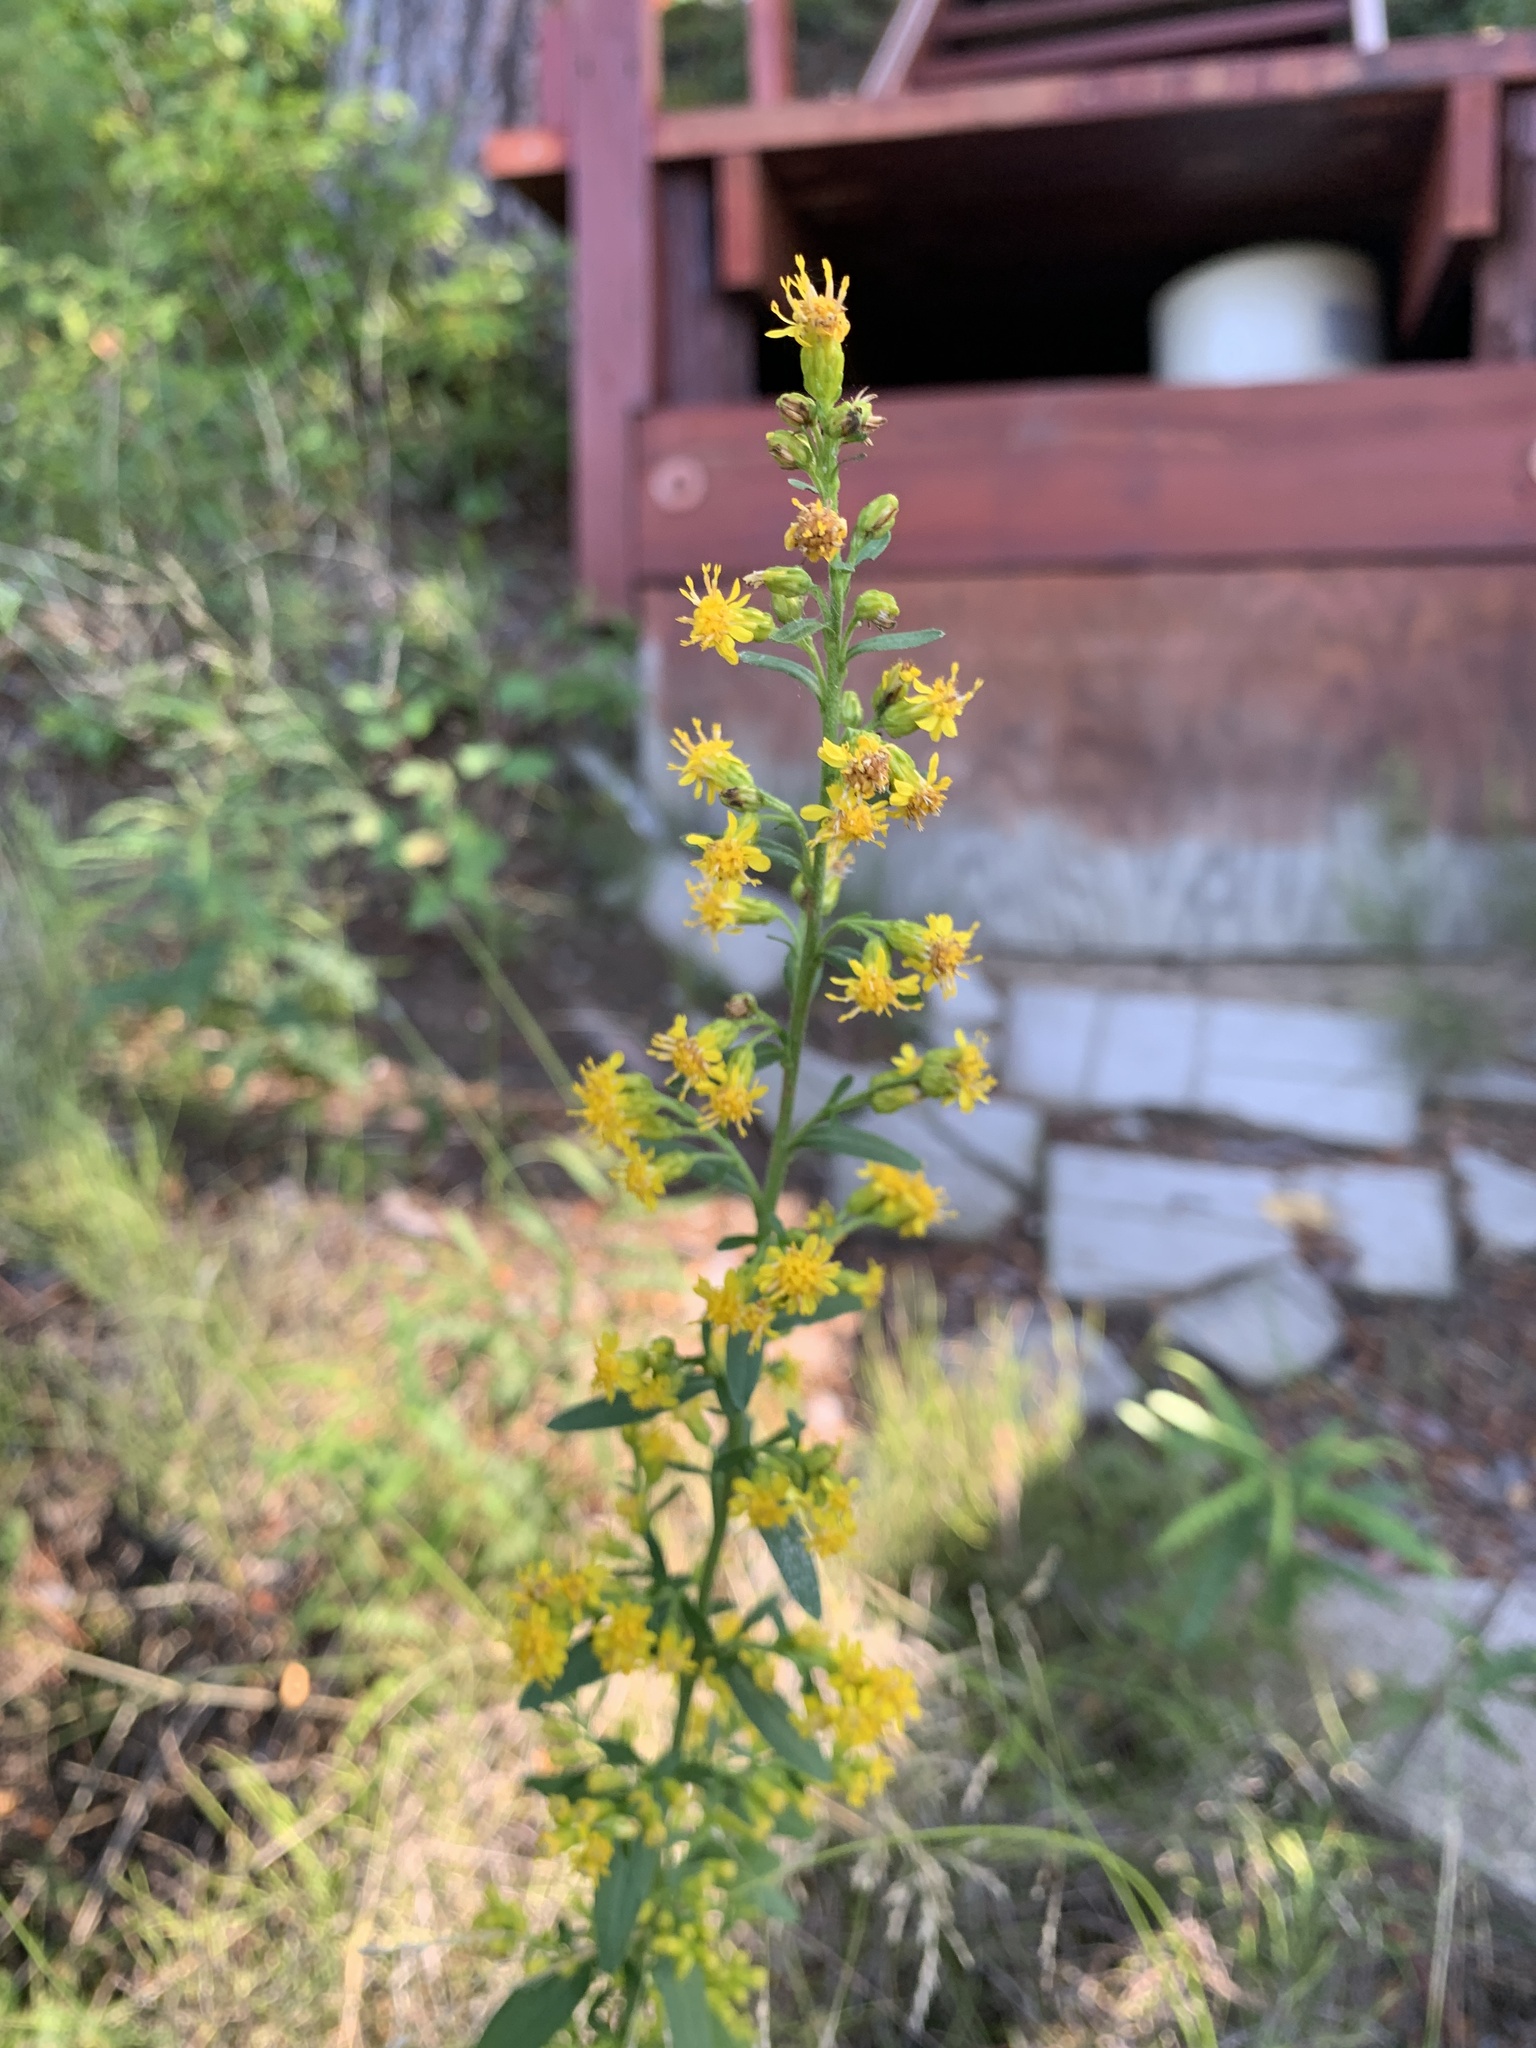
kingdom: Plantae
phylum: Tracheophyta
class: Magnoliopsida
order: Asterales
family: Asteraceae
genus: Solidago
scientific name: Solidago hispida
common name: Hairy goldenrod
